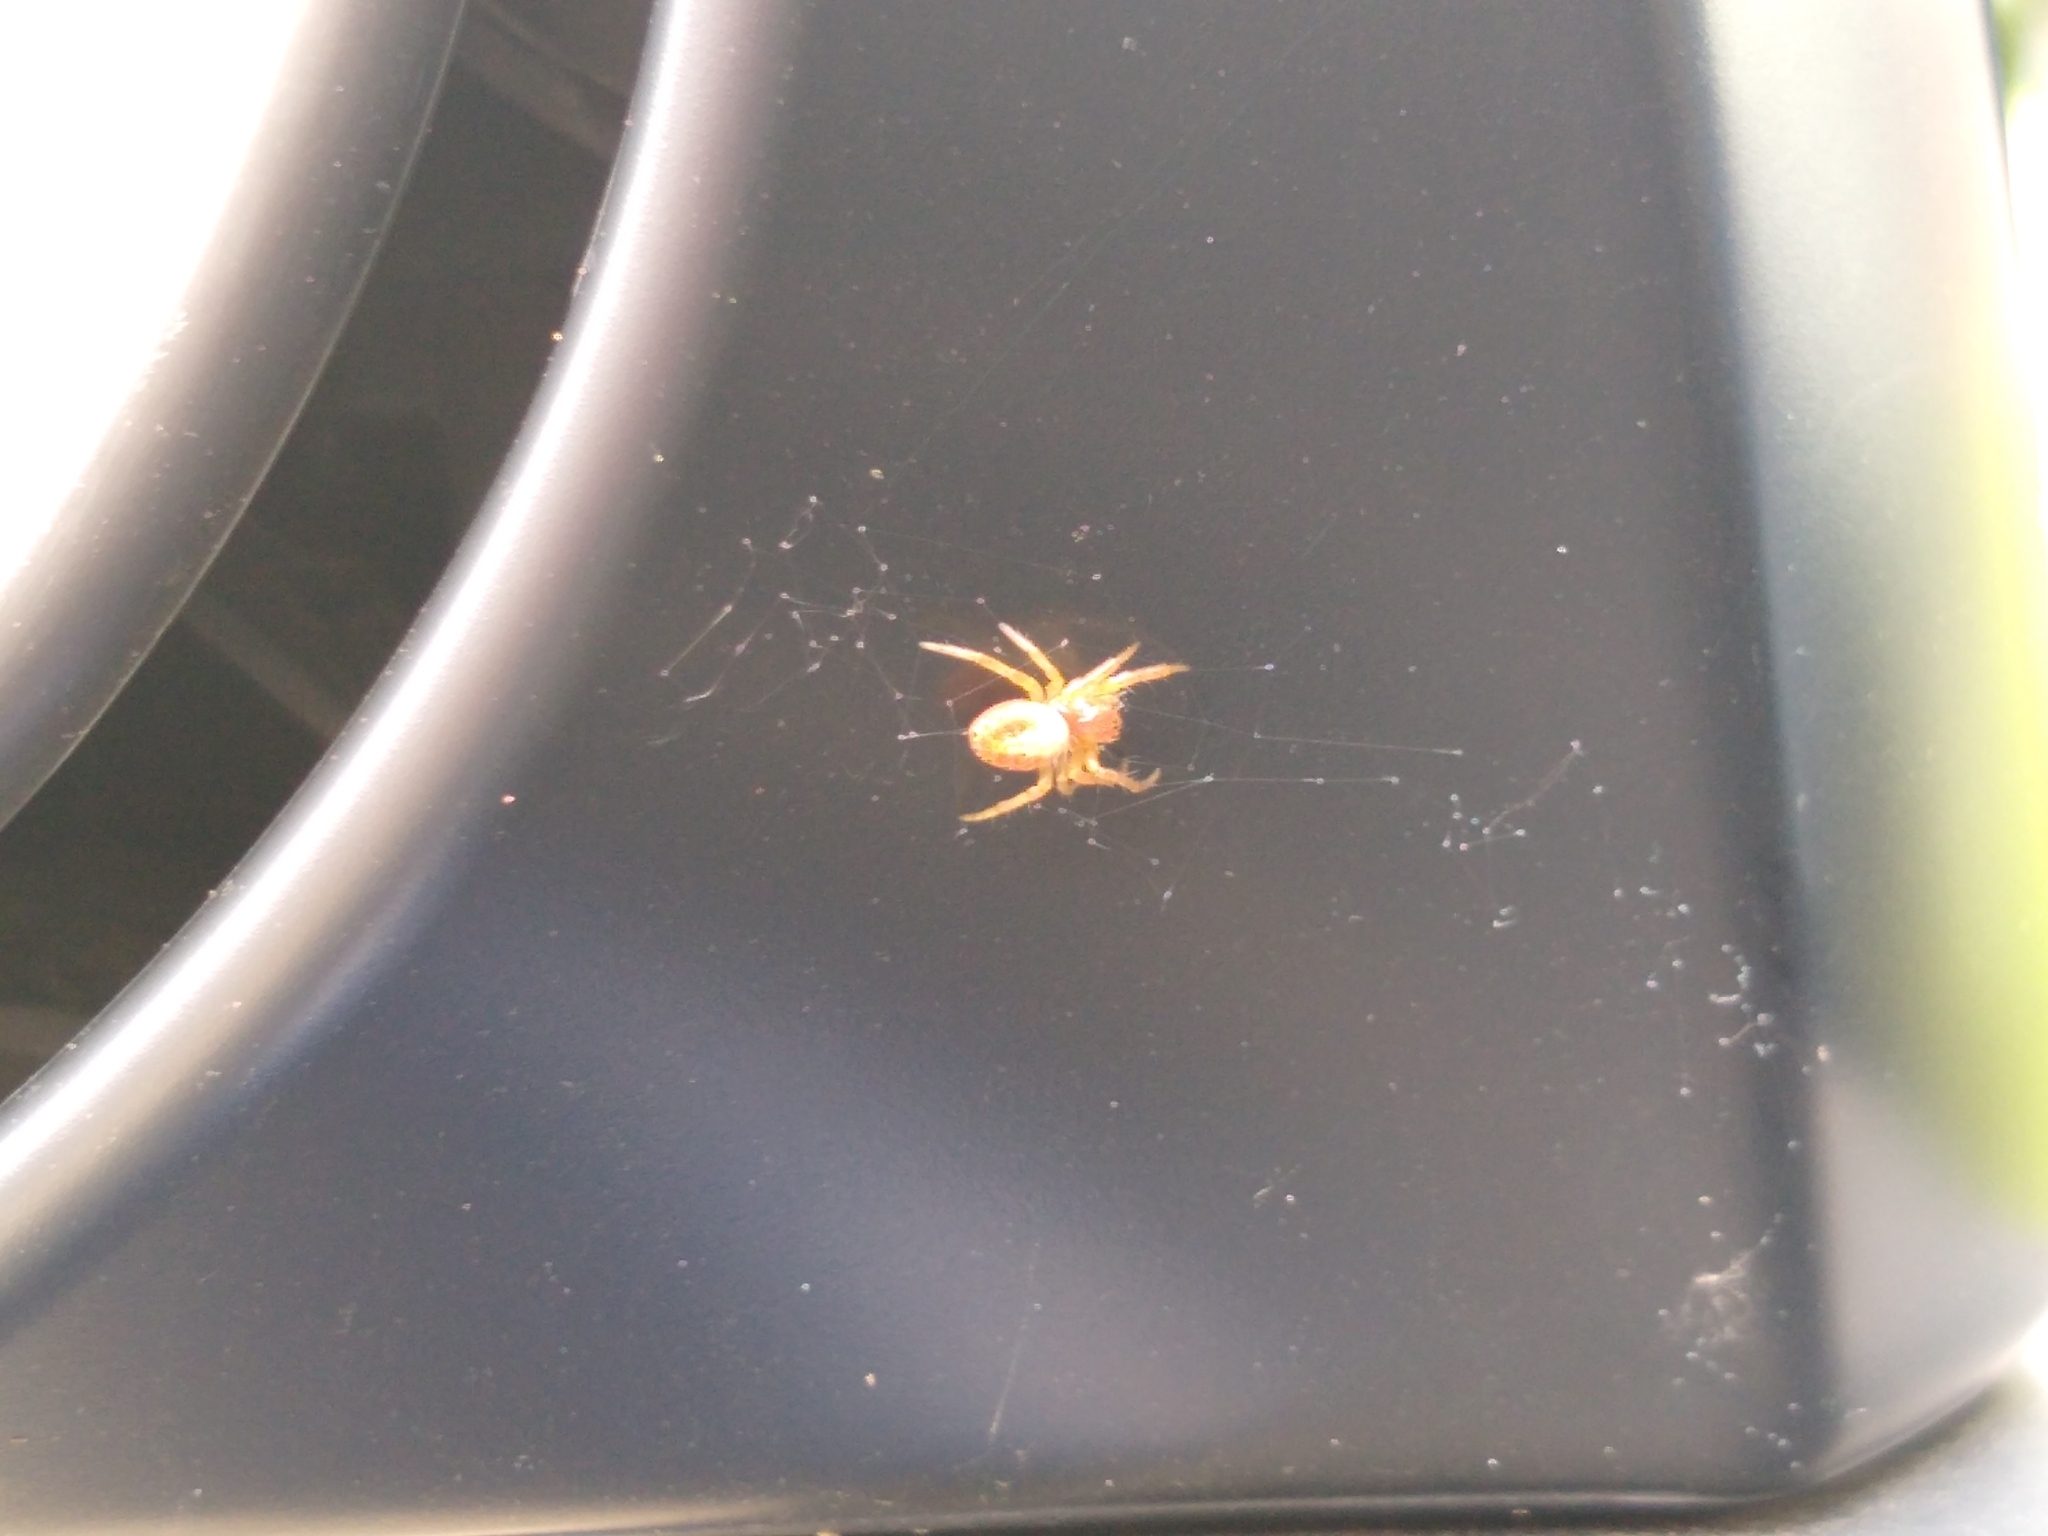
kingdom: Animalia
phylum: Arthropoda
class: Arachnida
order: Araneae
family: Araneidae
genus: Araniella
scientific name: Araniella displicata
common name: Sixspotted orb weaver
